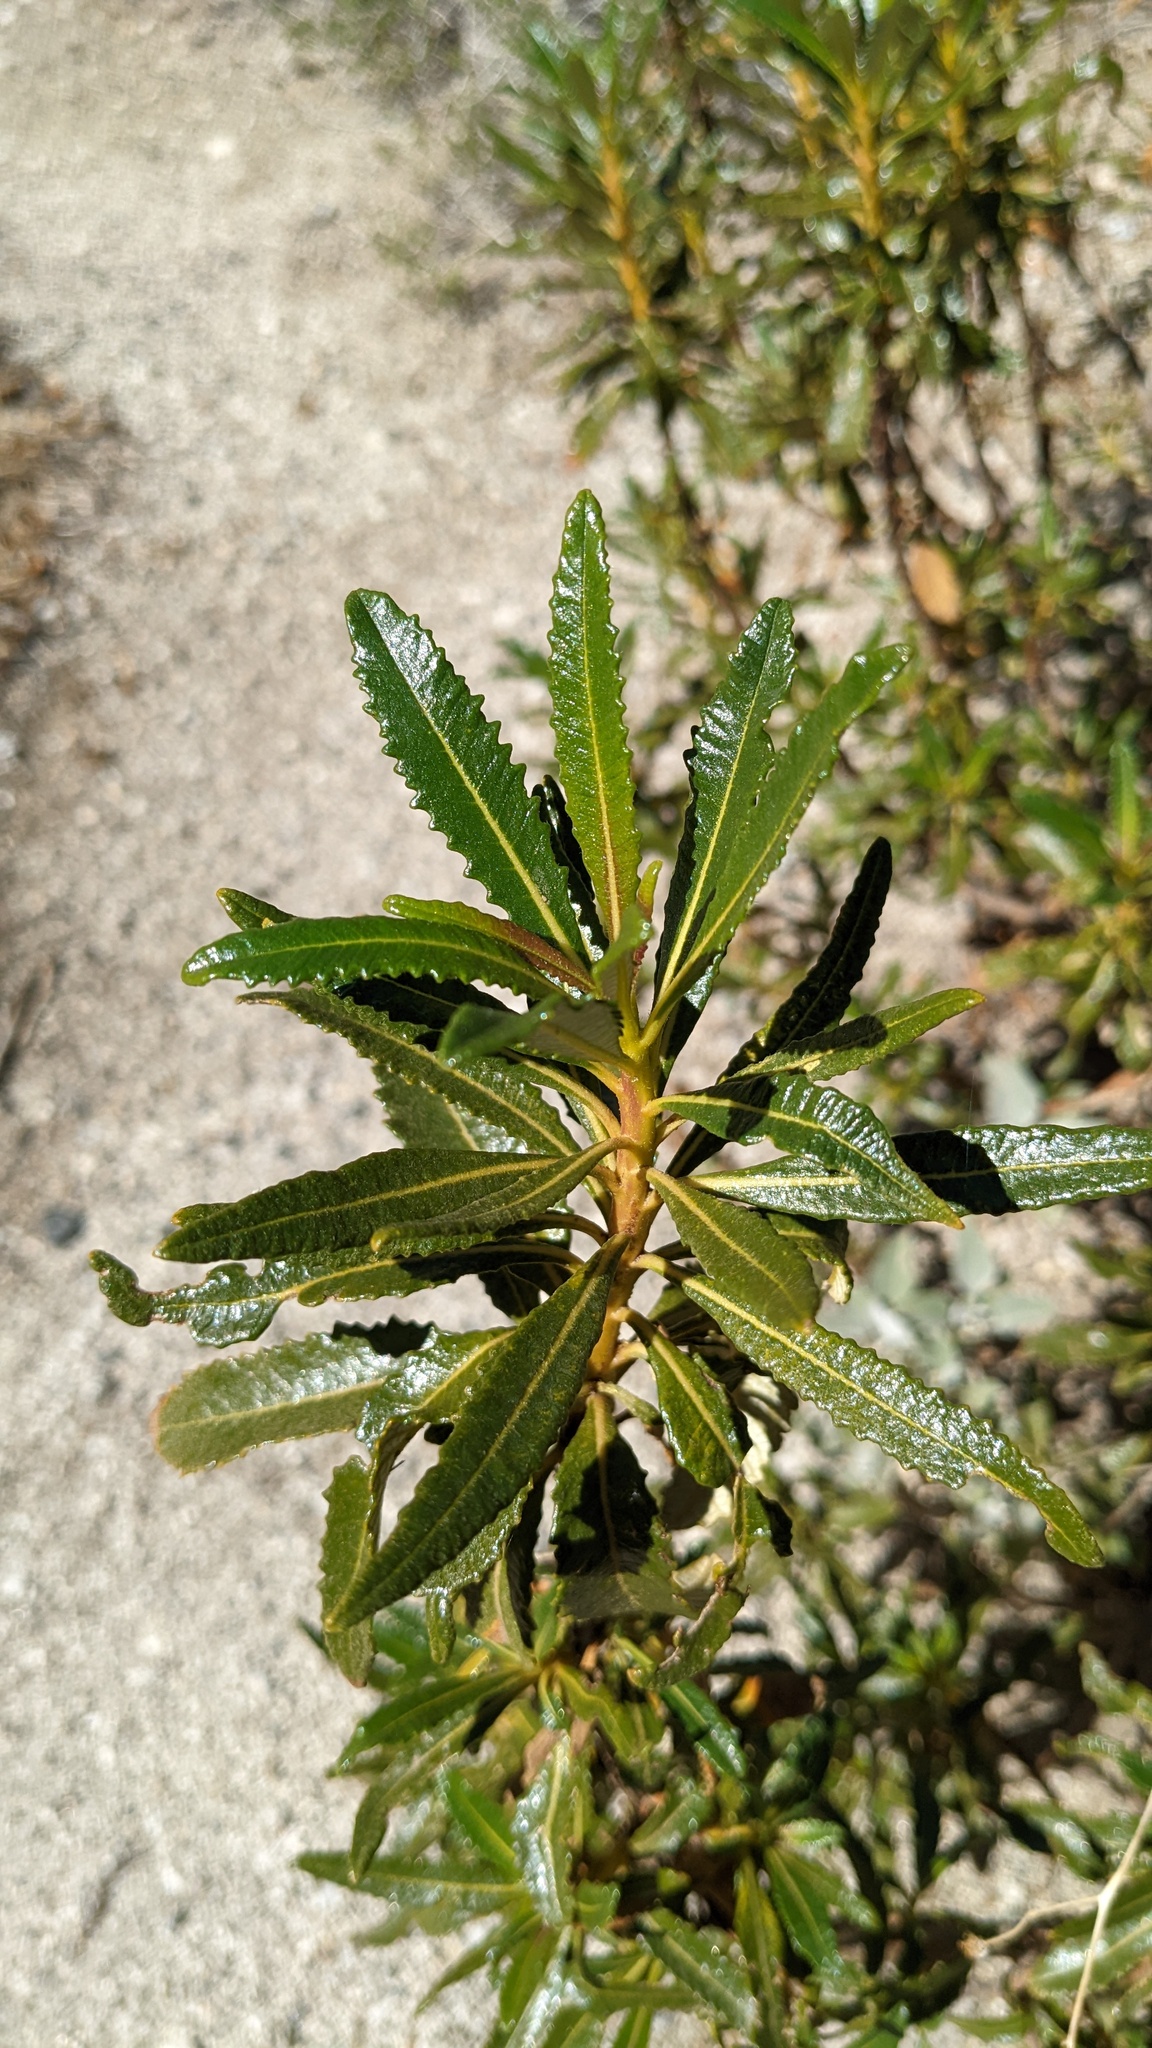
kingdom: Plantae
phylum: Tracheophyta
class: Magnoliopsida
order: Boraginales
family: Namaceae
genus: Eriodictyon
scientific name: Eriodictyon trichocalyx
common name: Hairy yerba-santa
